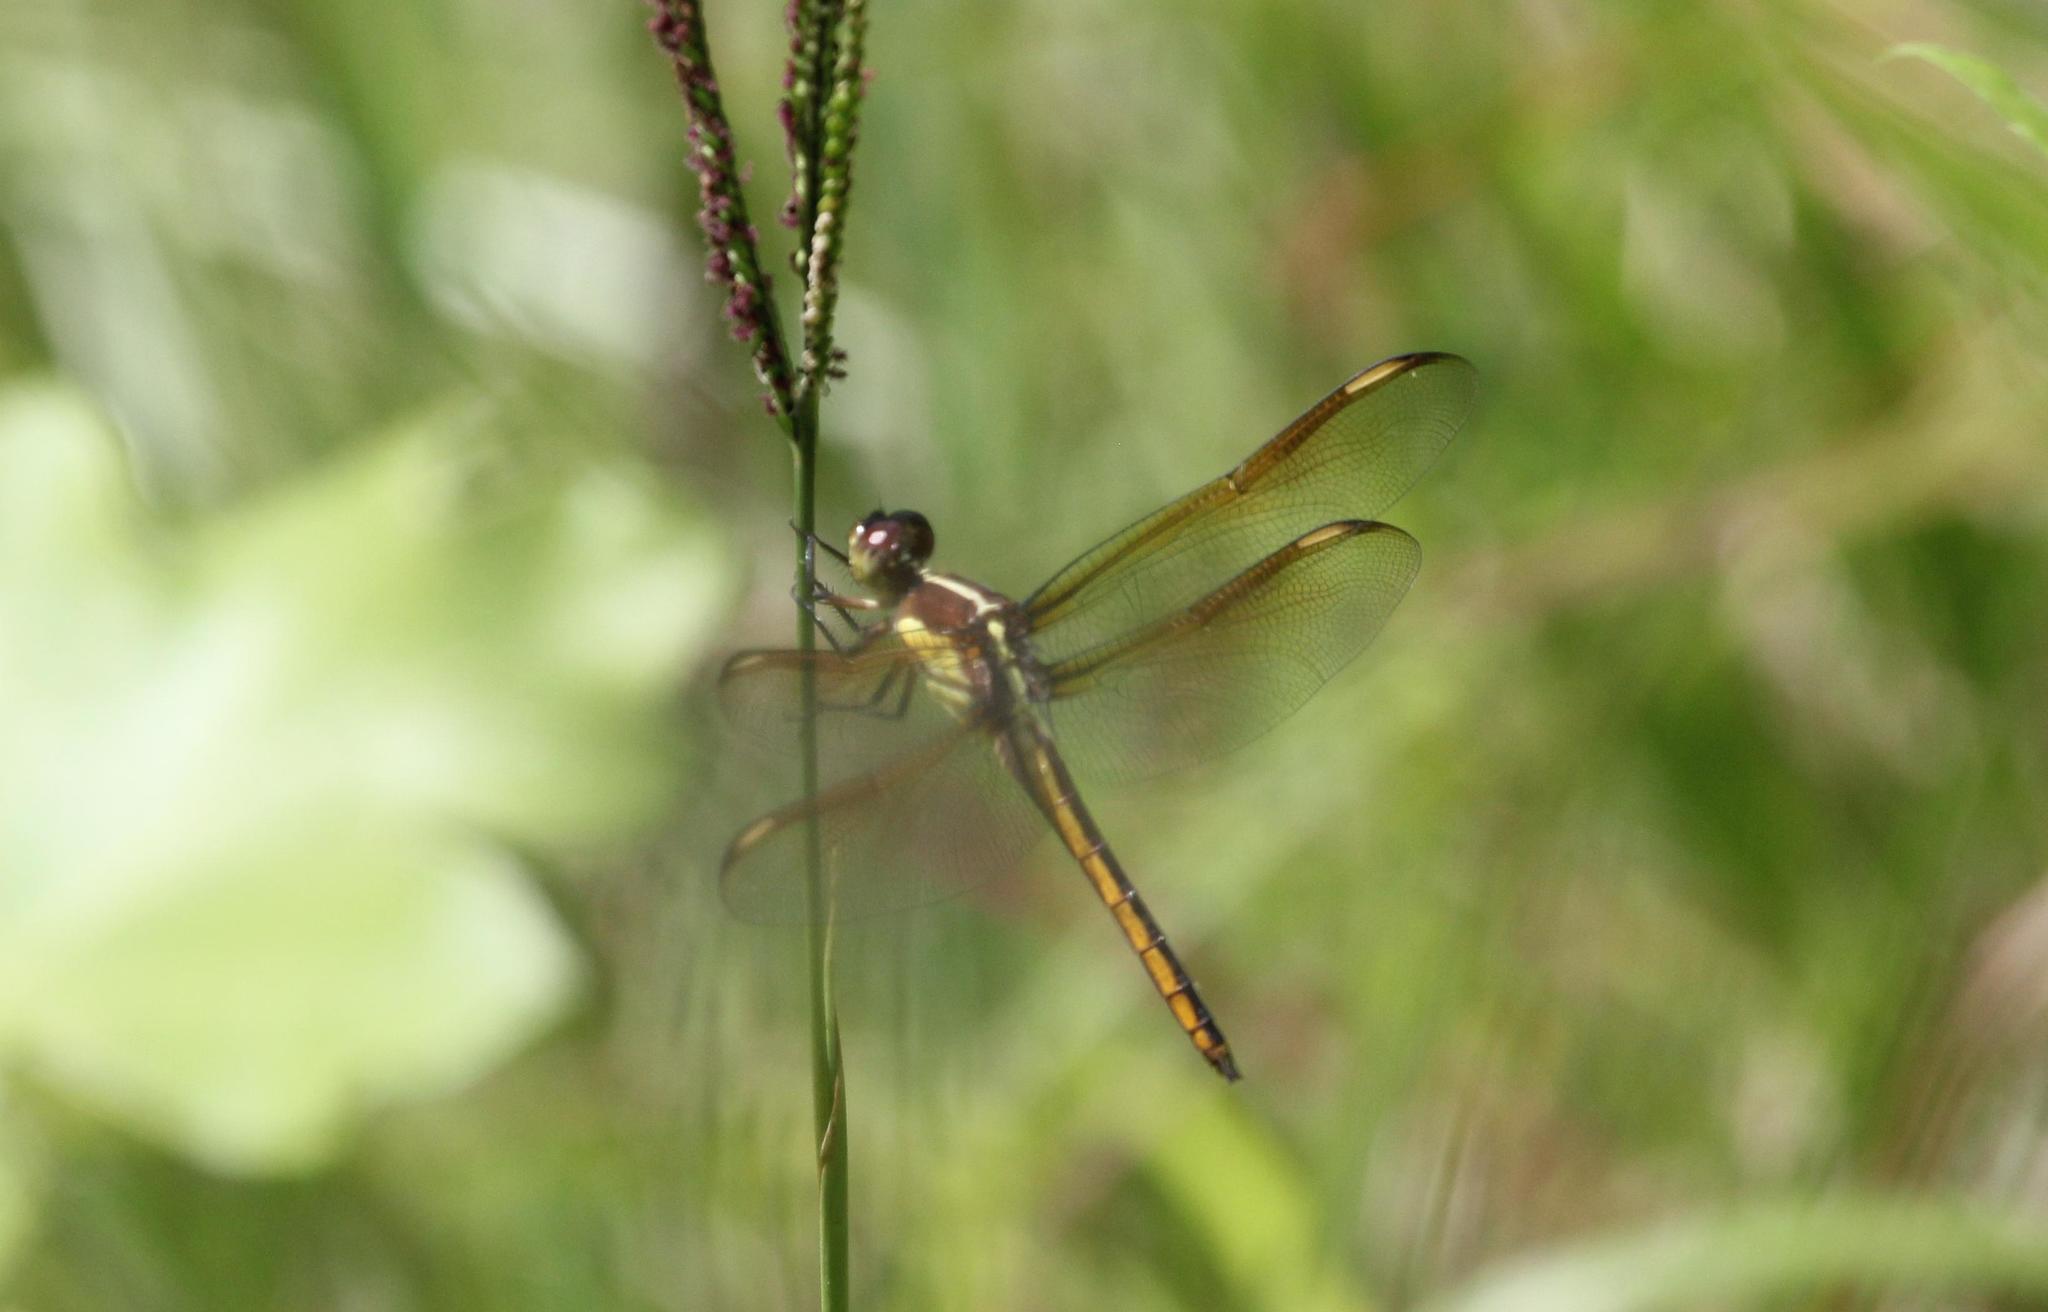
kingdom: Animalia
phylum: Arthropoda
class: Insecta
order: Odonata
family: Libellulidae
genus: Libellula
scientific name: Libellula flavida
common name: Yellow-sided skimmer
